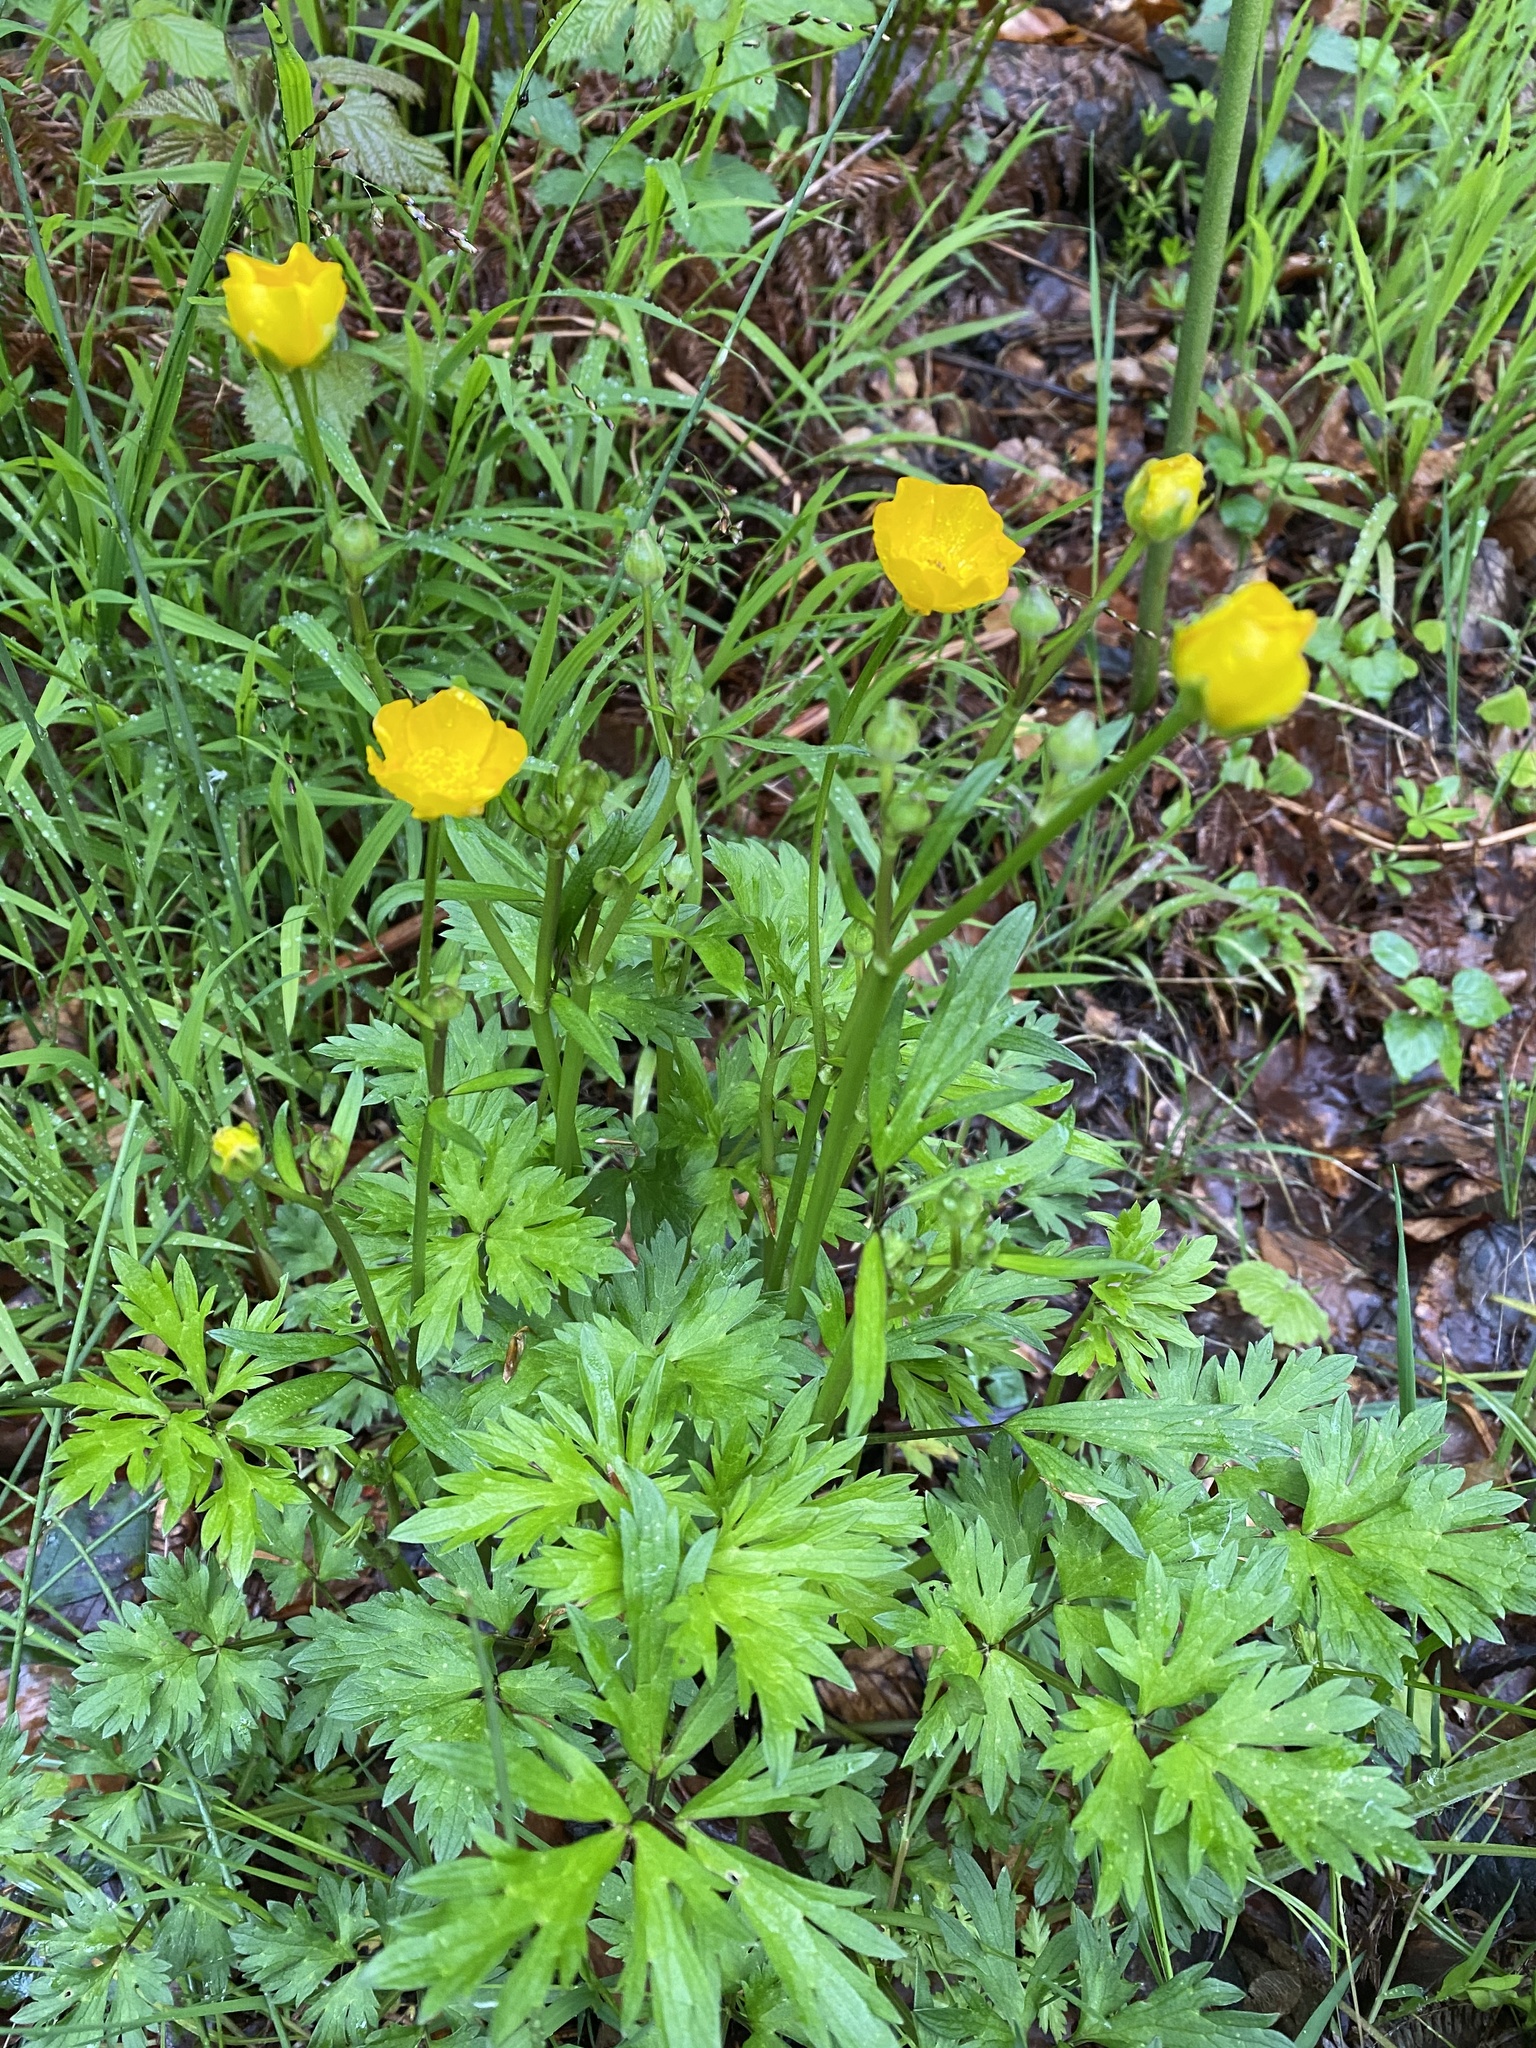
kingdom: Plantae
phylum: Tracheophyta
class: Magnoliopsida
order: Ranunculales
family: Ranunculaceae
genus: Ranunculus
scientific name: Ranunculus repens
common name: Creeping buttercup
